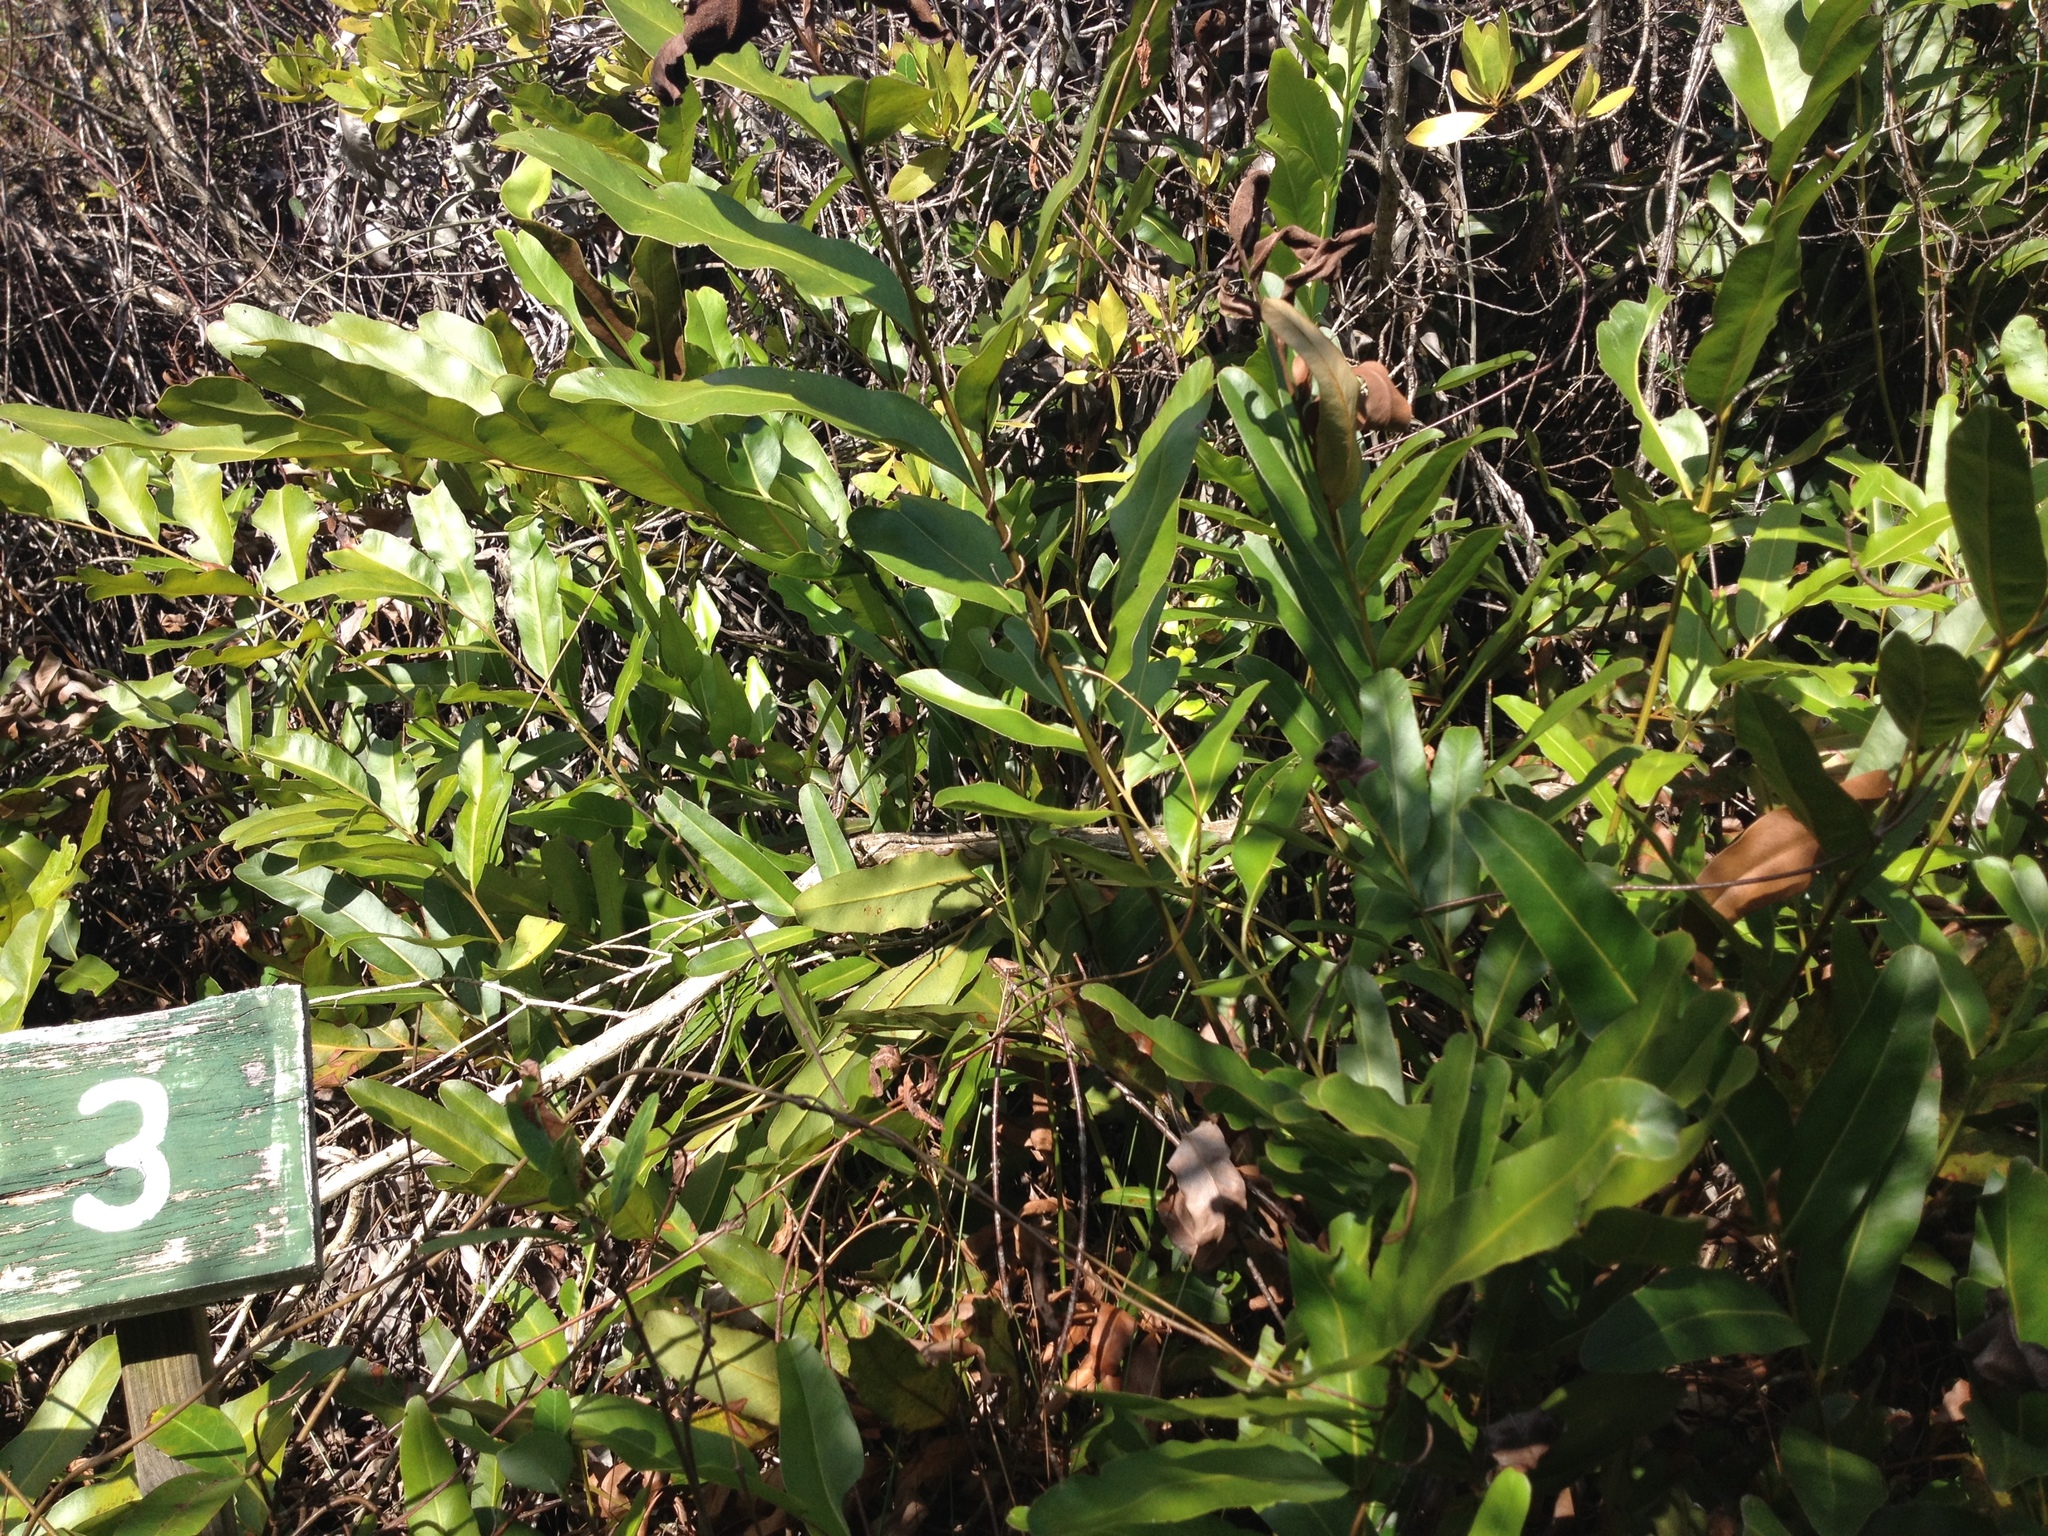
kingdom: Plantae
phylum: Tracheophyta
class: Polypodiopsida
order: Polypodiales
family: Pteridaceae
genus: Acrostichum
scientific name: Acrostichum aureum
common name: Leather fern
